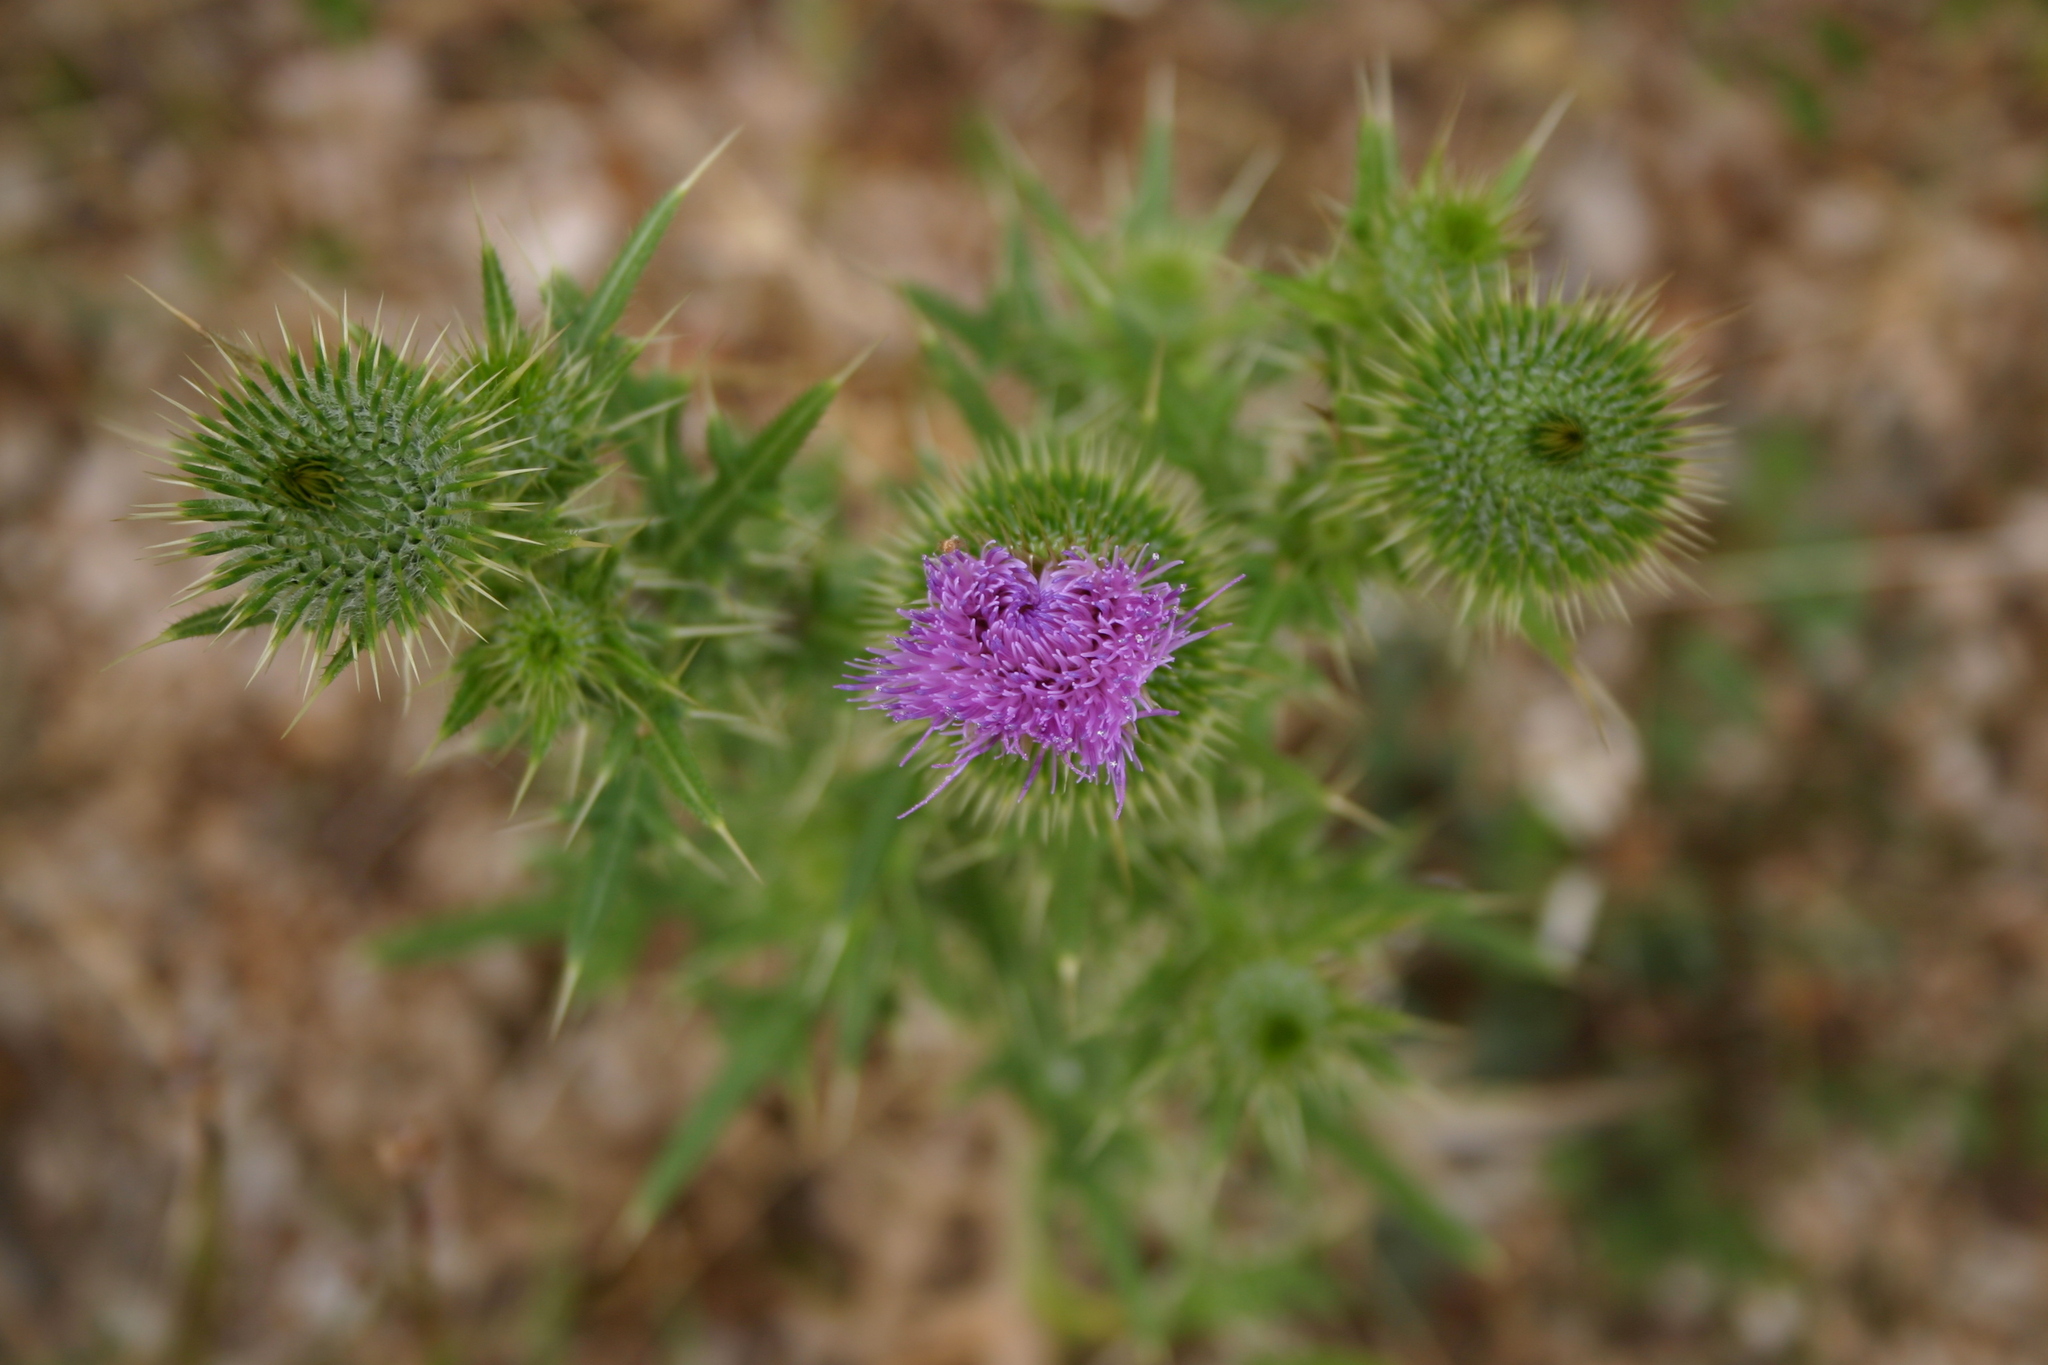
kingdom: Plantae
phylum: Tracheophyta
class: Magnoliopsida
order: Asterales
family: Asteraceae
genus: Cirsium
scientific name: Cirsium vulgare
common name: Bull thistle
